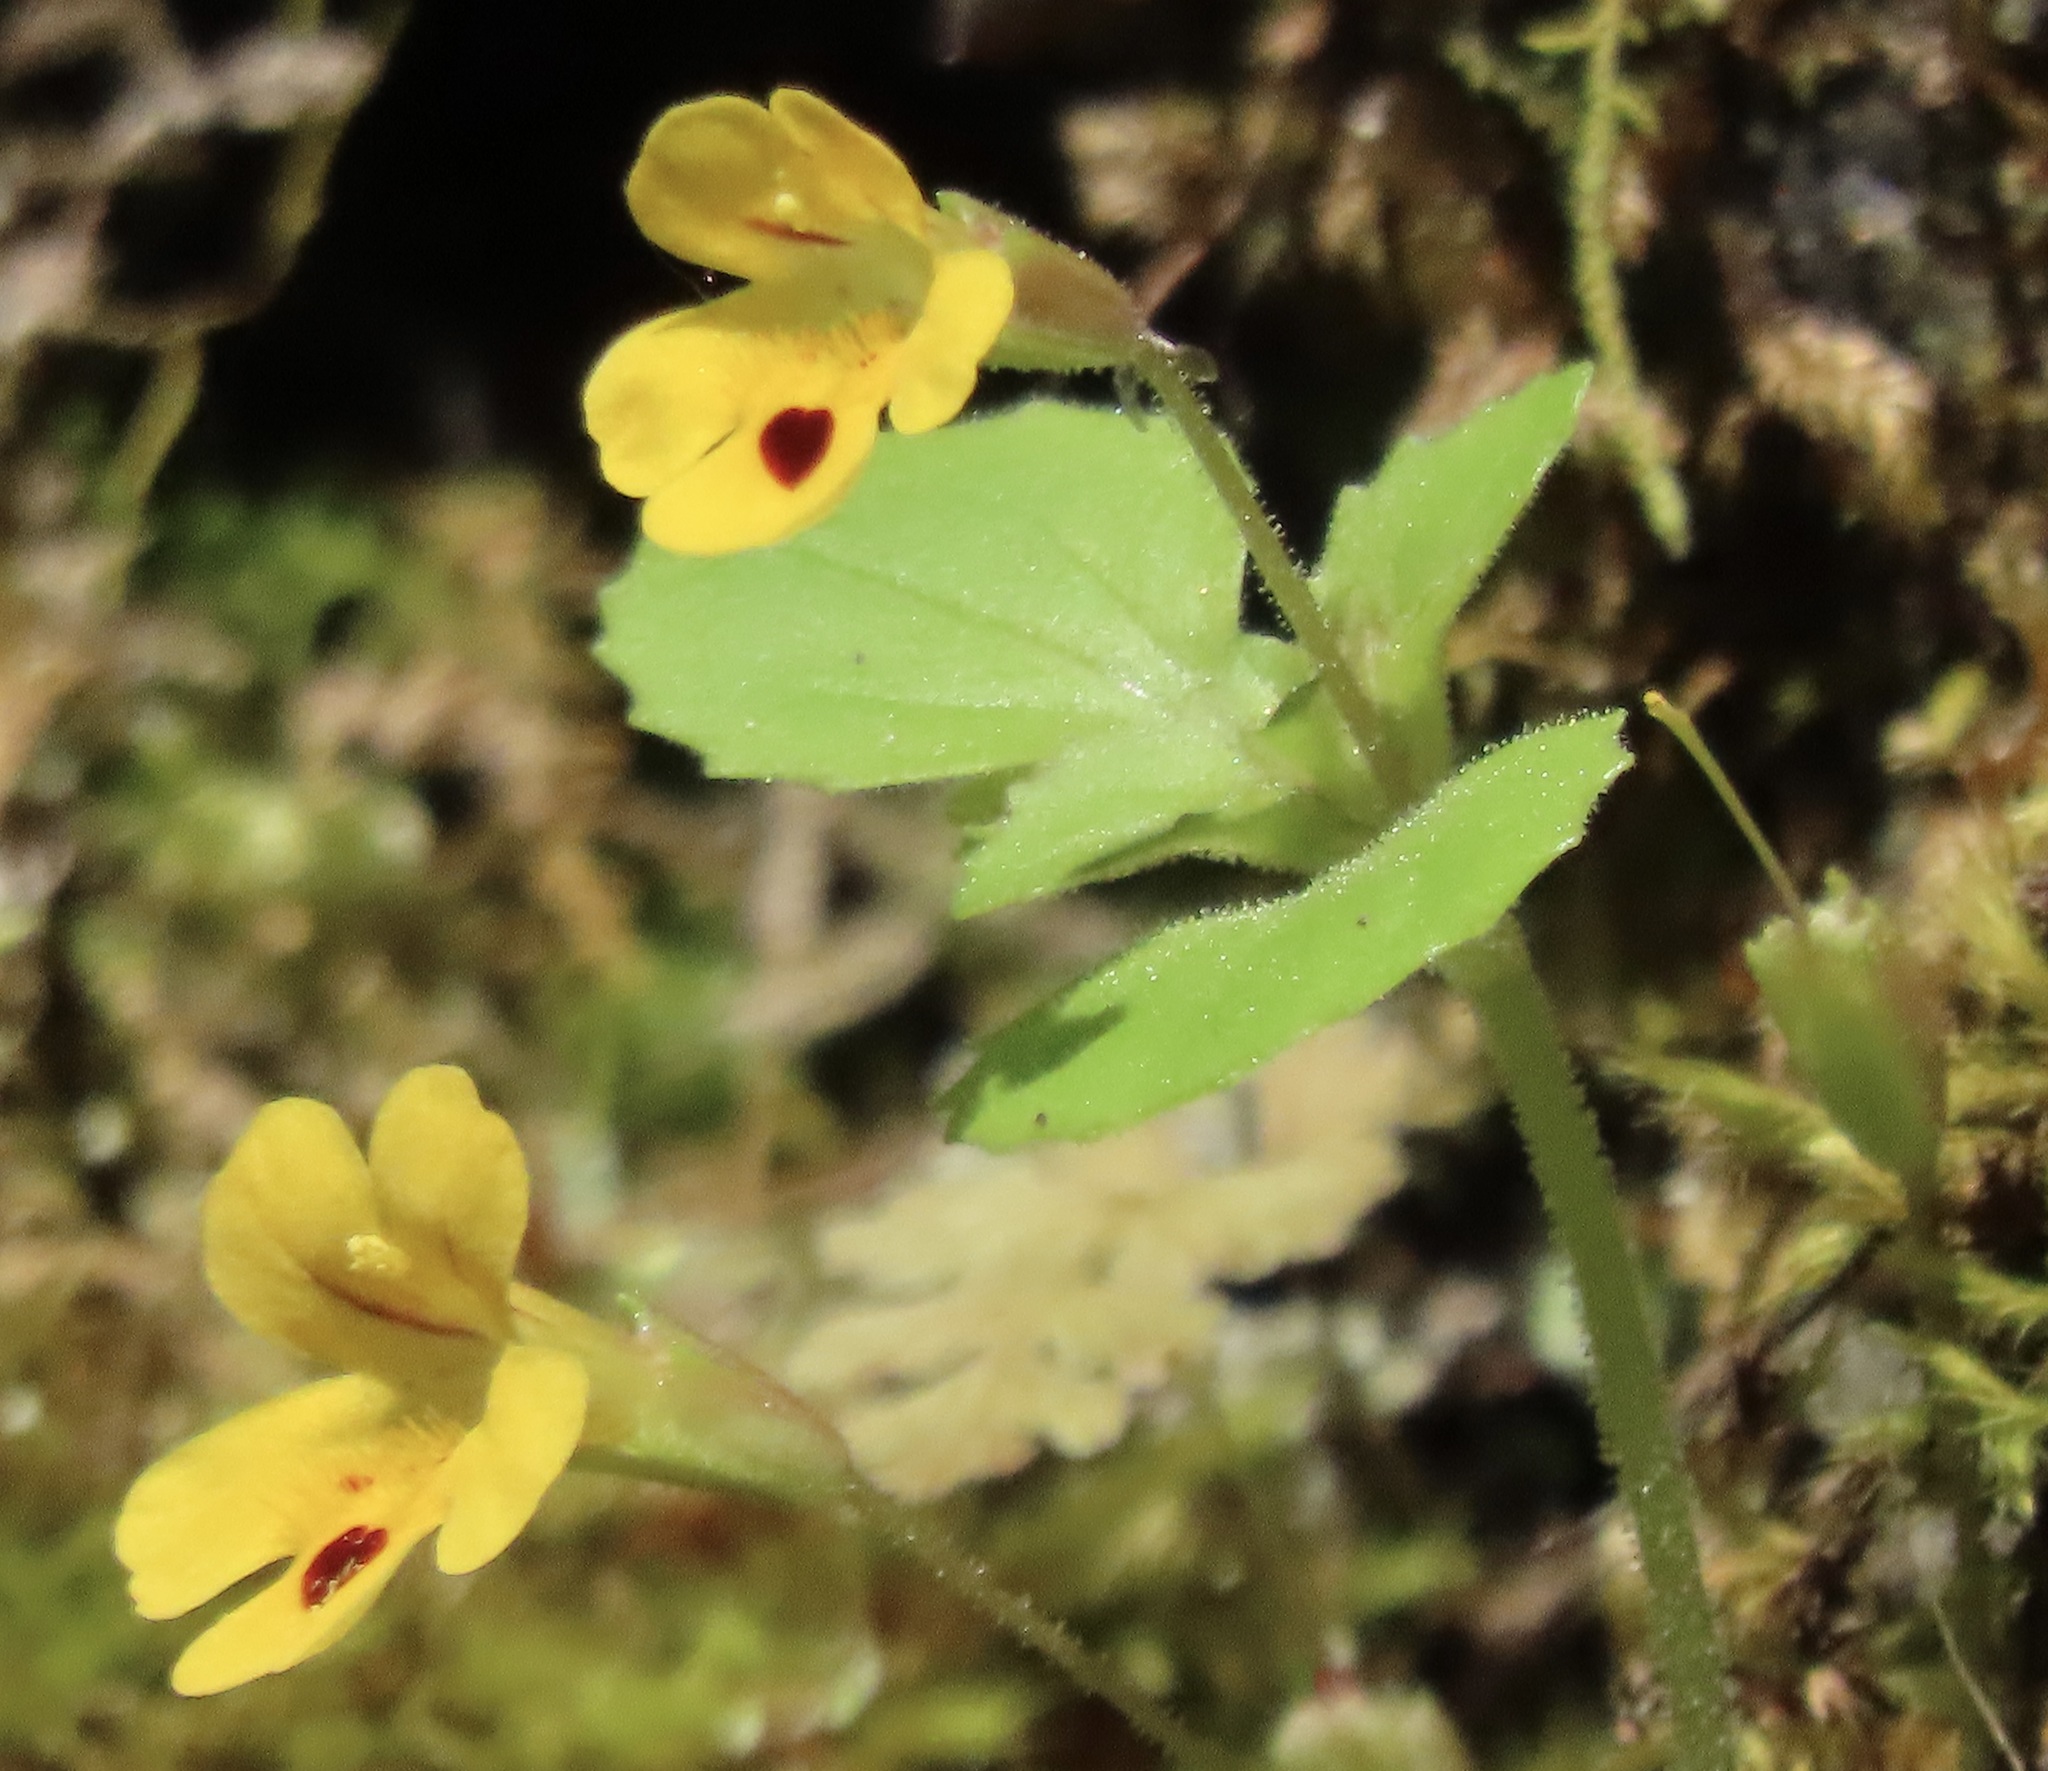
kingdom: Plantae
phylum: Tracheophyta
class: Magnoliopsida
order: Lamiales
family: Phrymaceae
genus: Erythranthe
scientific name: Erythranthe alsinoides
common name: Chickweed monkeyflower
